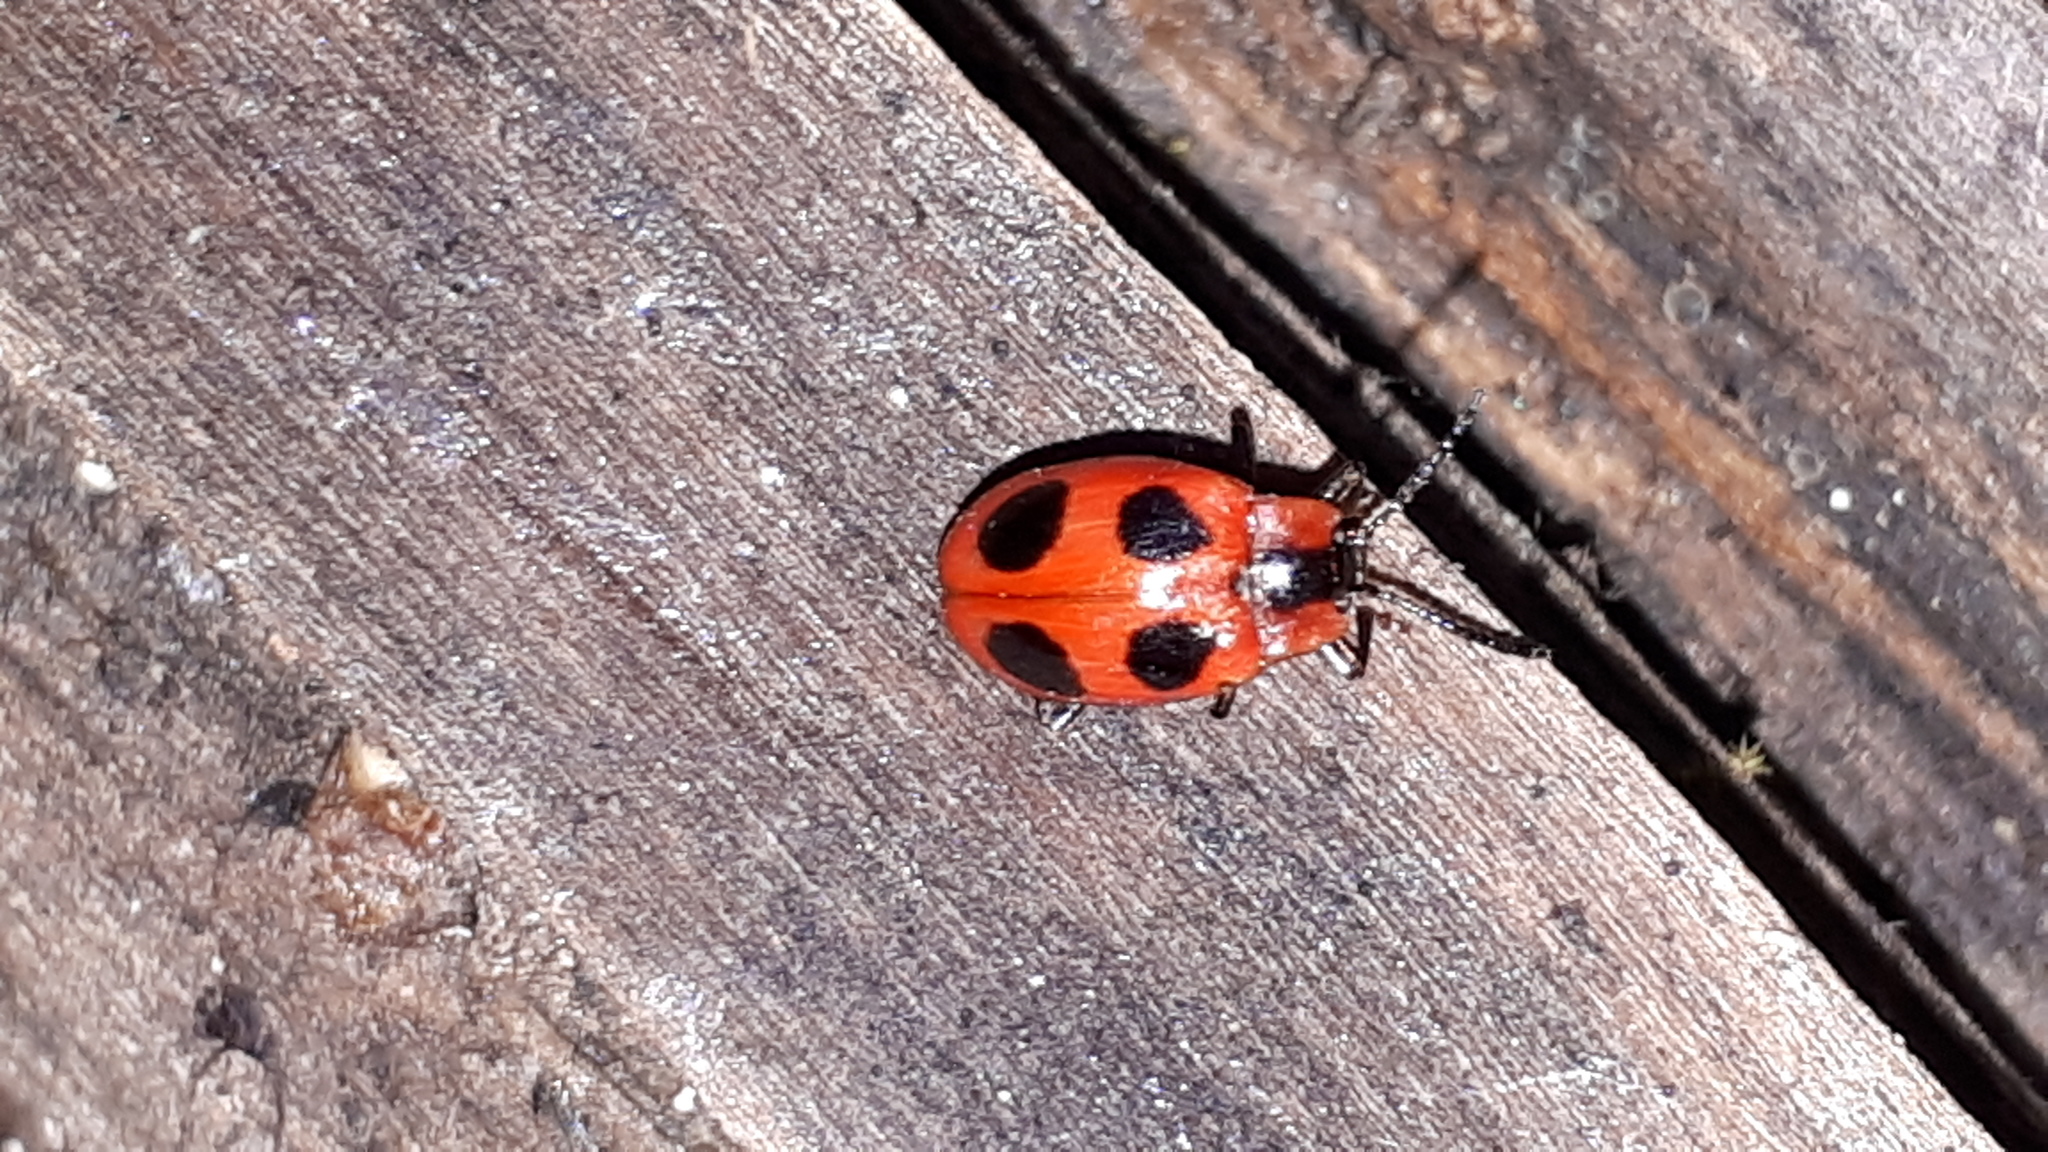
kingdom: Animalia
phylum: Arthropoda
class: Insecta
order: Coleoptera
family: Endomychidae
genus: Endomychus
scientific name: Endomychus coccineus
